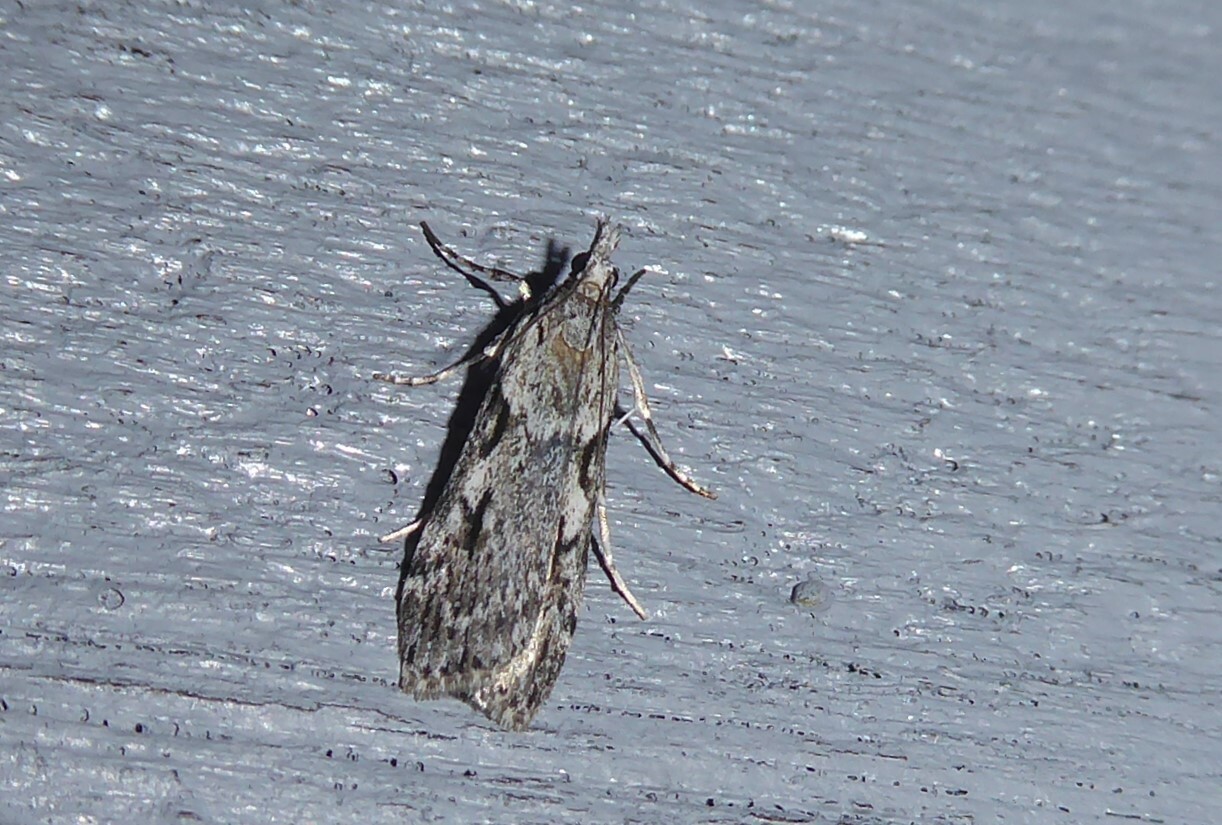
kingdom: Animalia
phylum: Arthropoda
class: Insecta
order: Lepidoptera
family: Crambidae
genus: Scoparia
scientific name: Scoparia halopis
